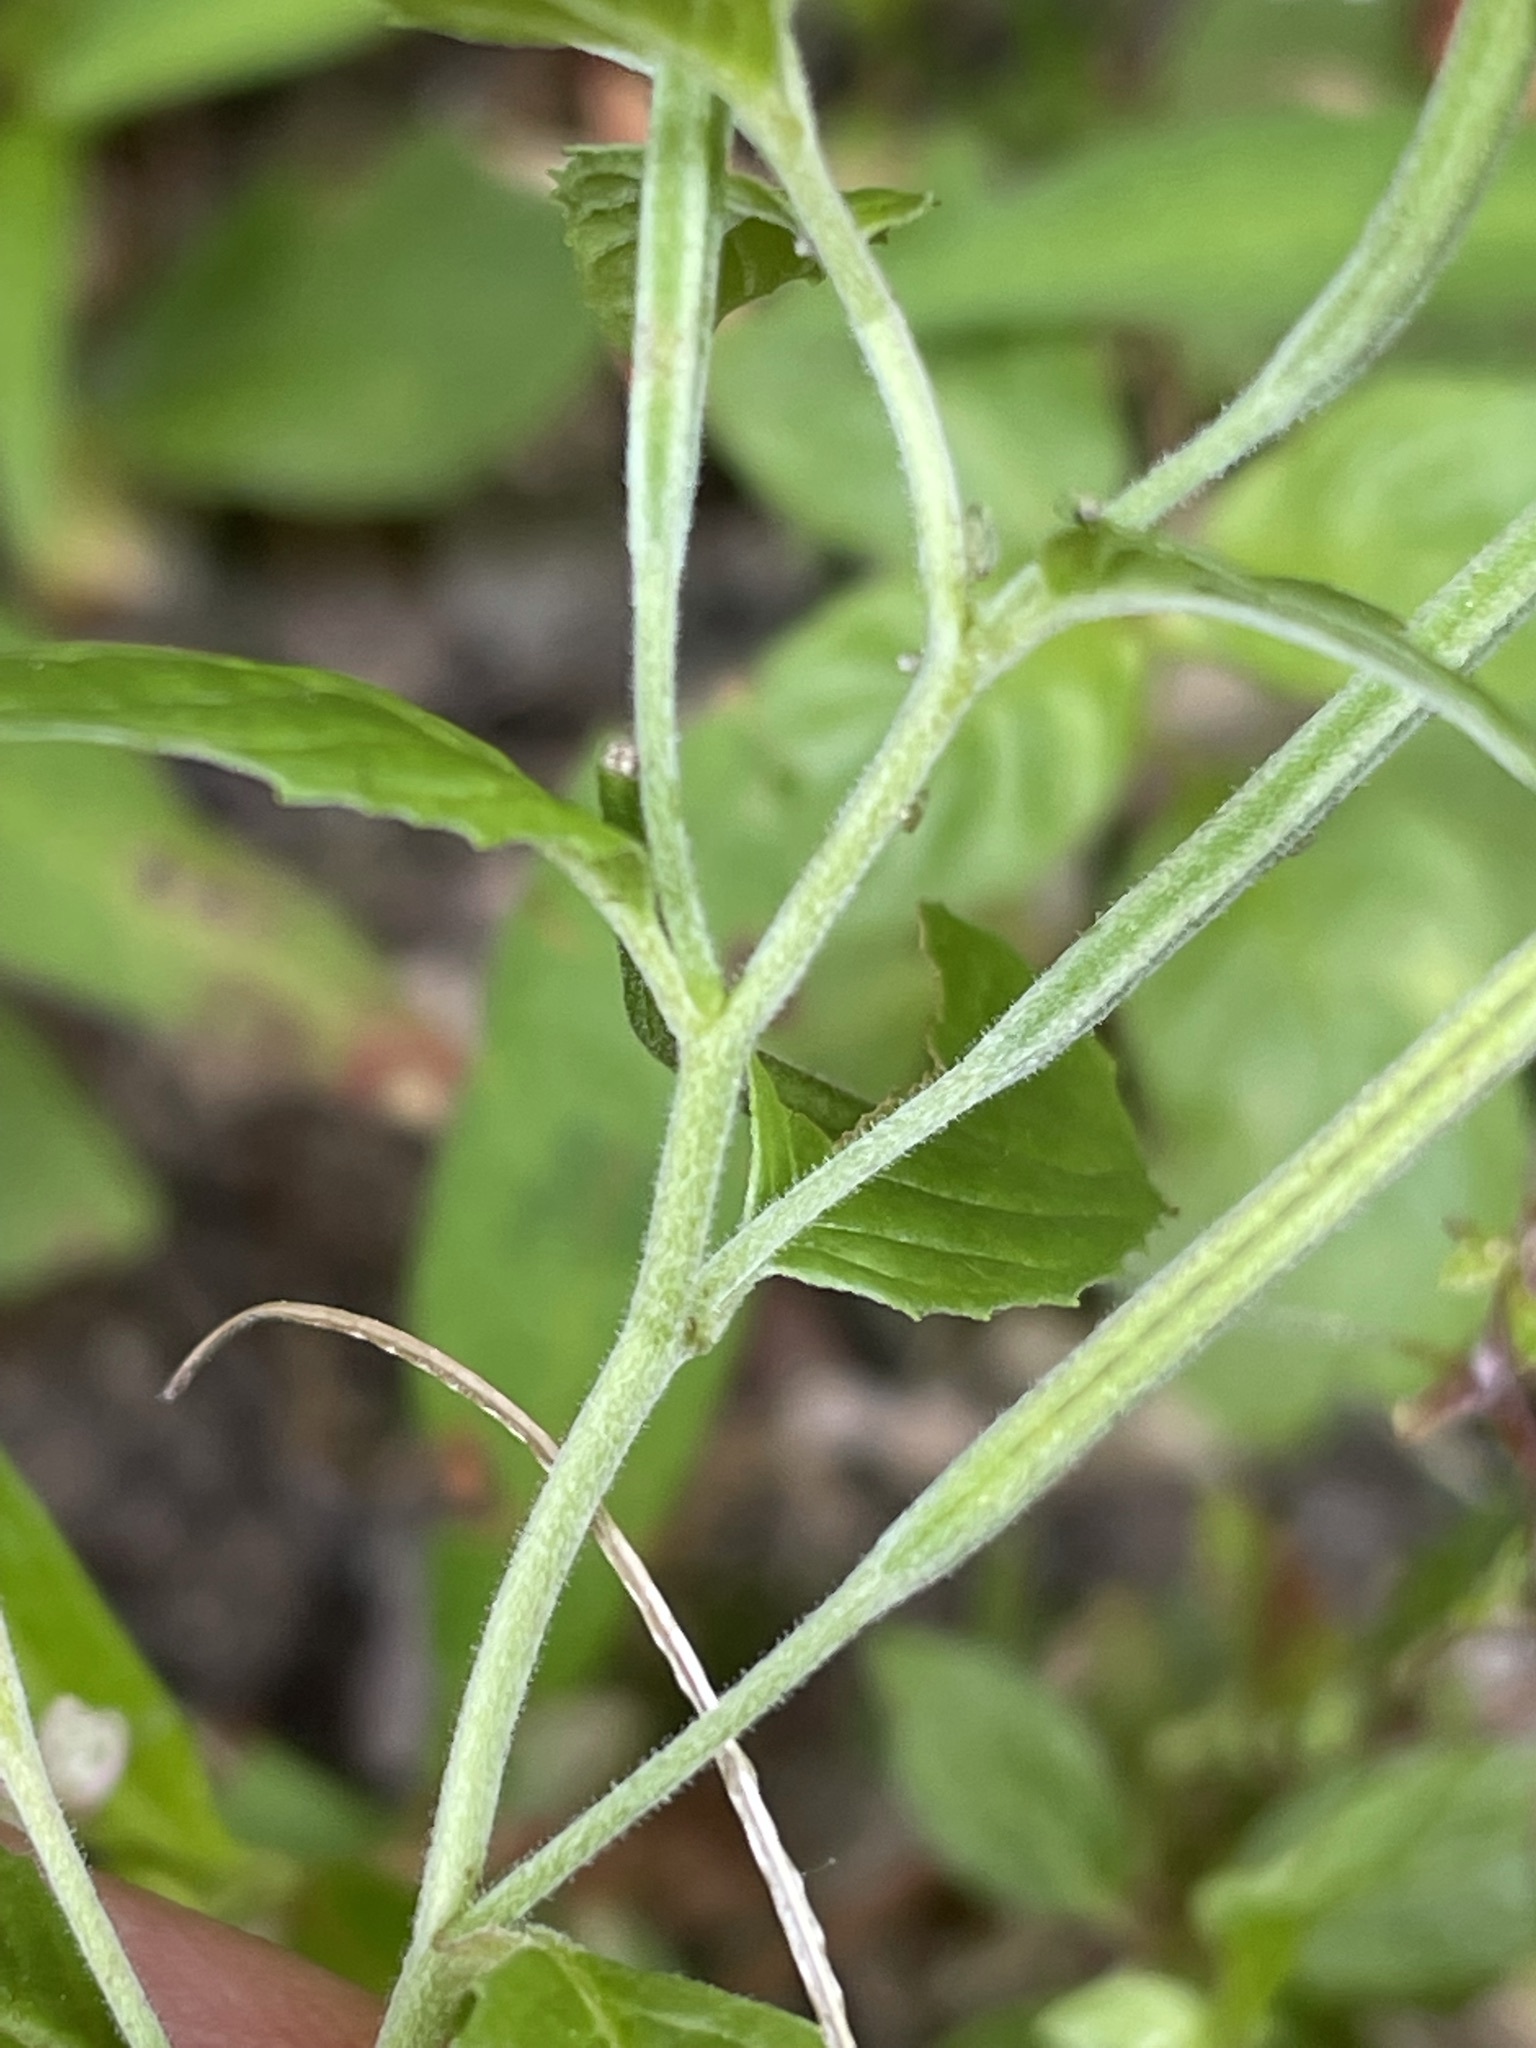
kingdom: Plantae
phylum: Tracheophyta
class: Magnoliopsida
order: Myrtales
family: Onagraceae
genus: Epilobium
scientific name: Epilobium roseum
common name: Pale willowherb
